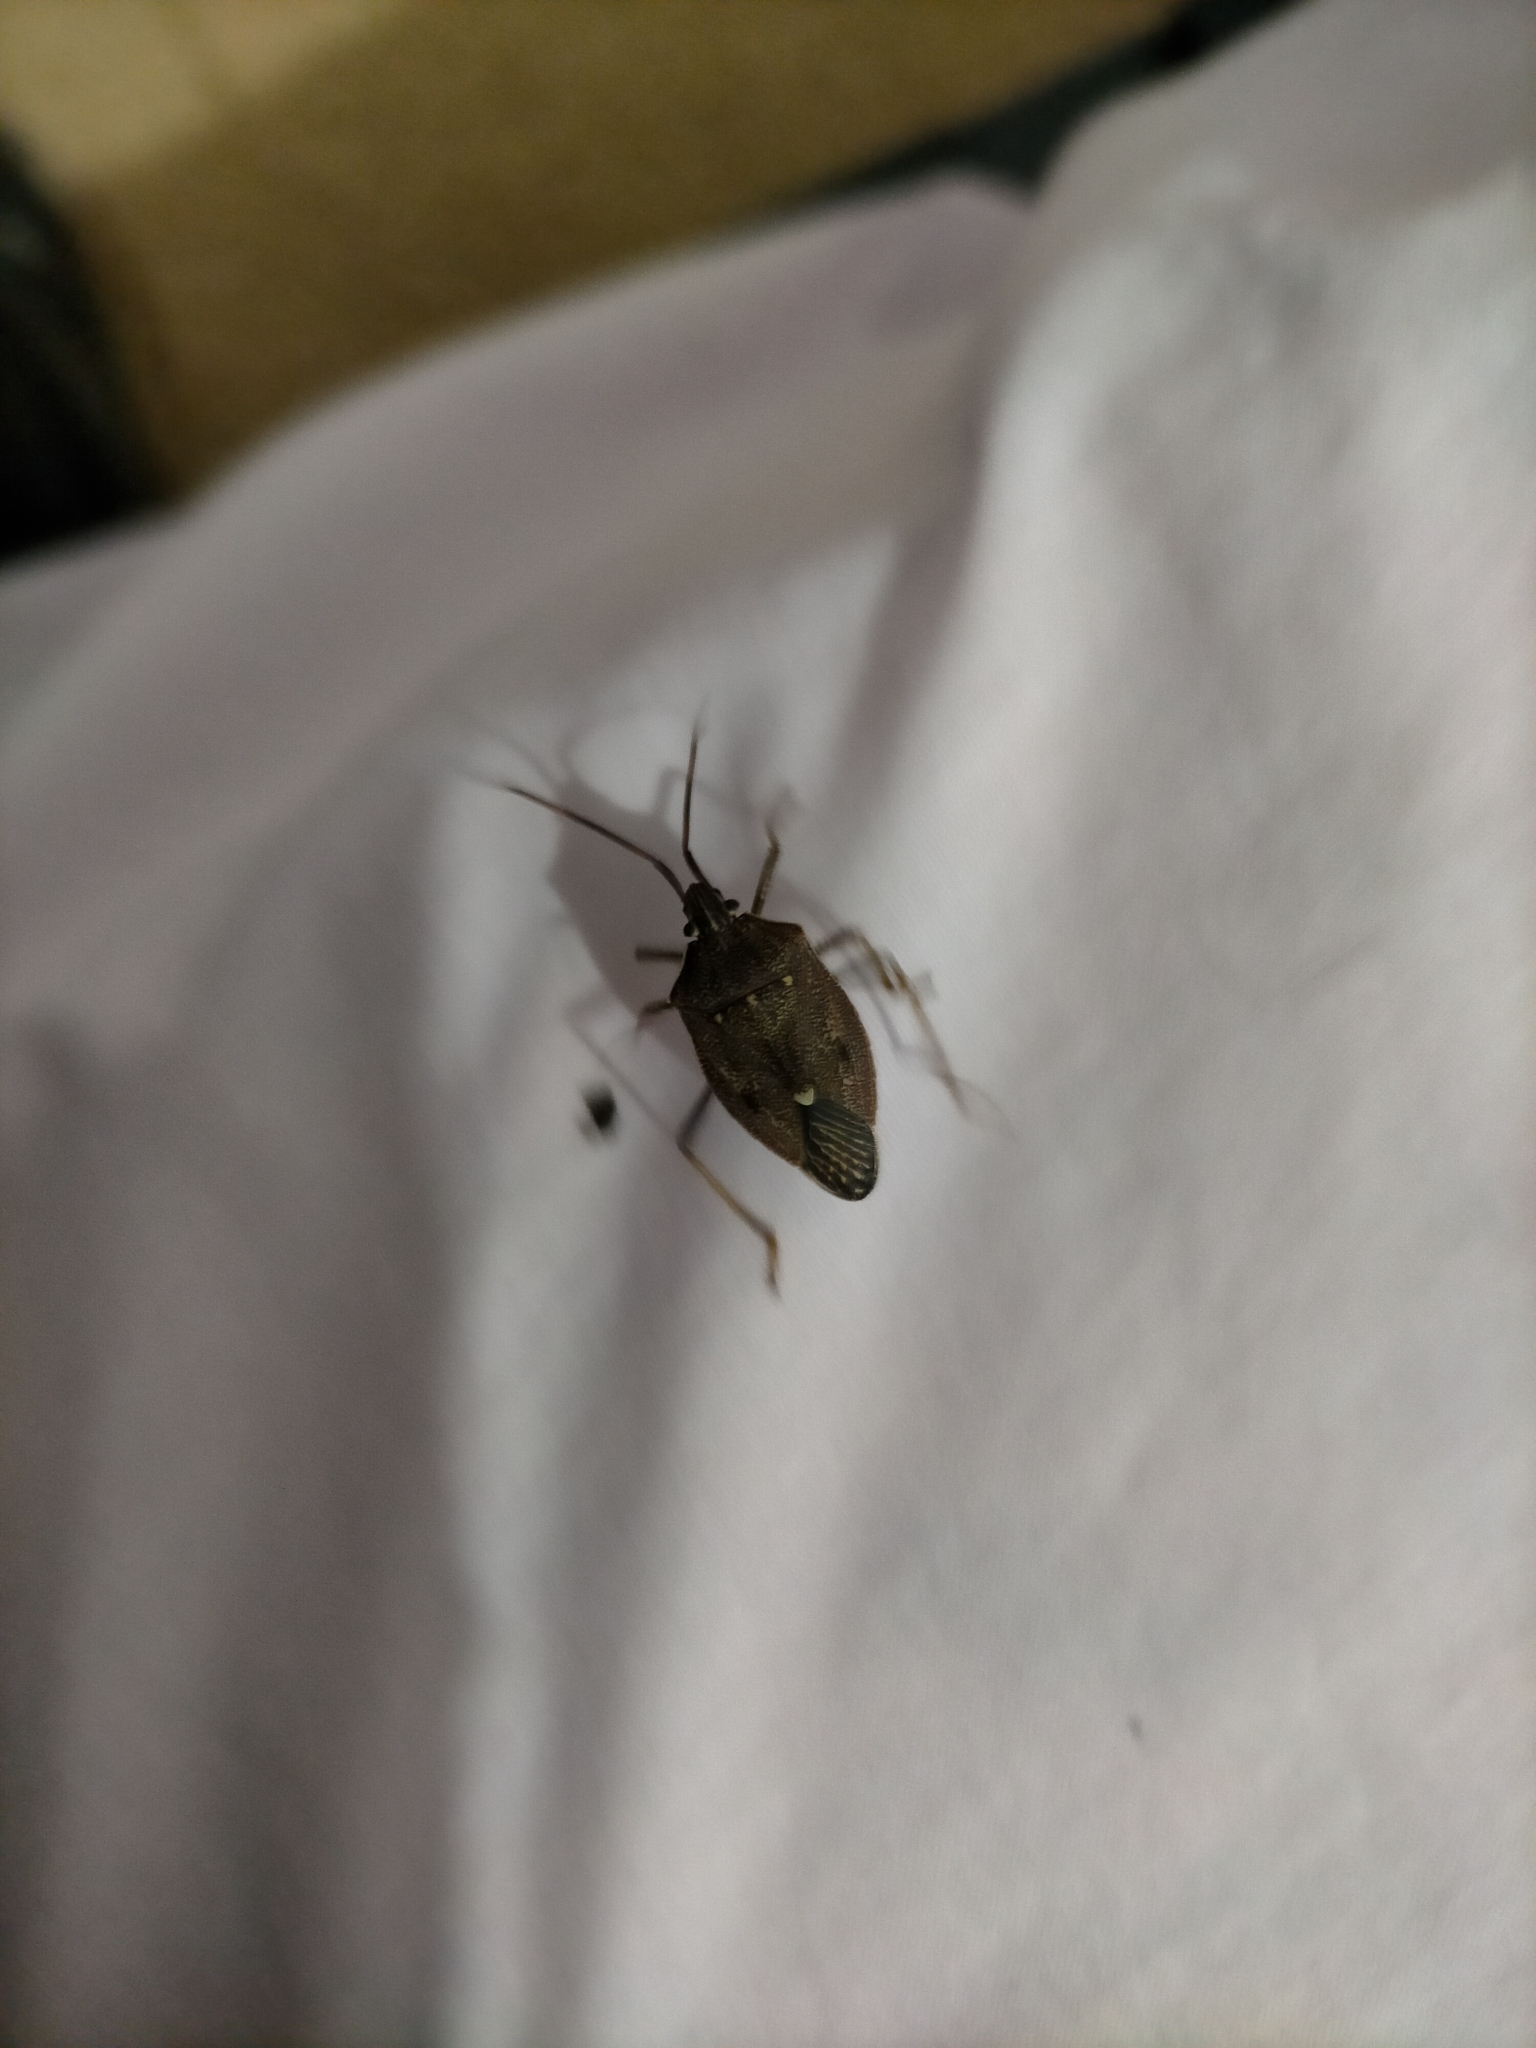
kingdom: Animalia
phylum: Arthropoda
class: Insecta
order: Hemiptera
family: Pentatomidae
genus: Poecilometis
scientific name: Poecilometis
